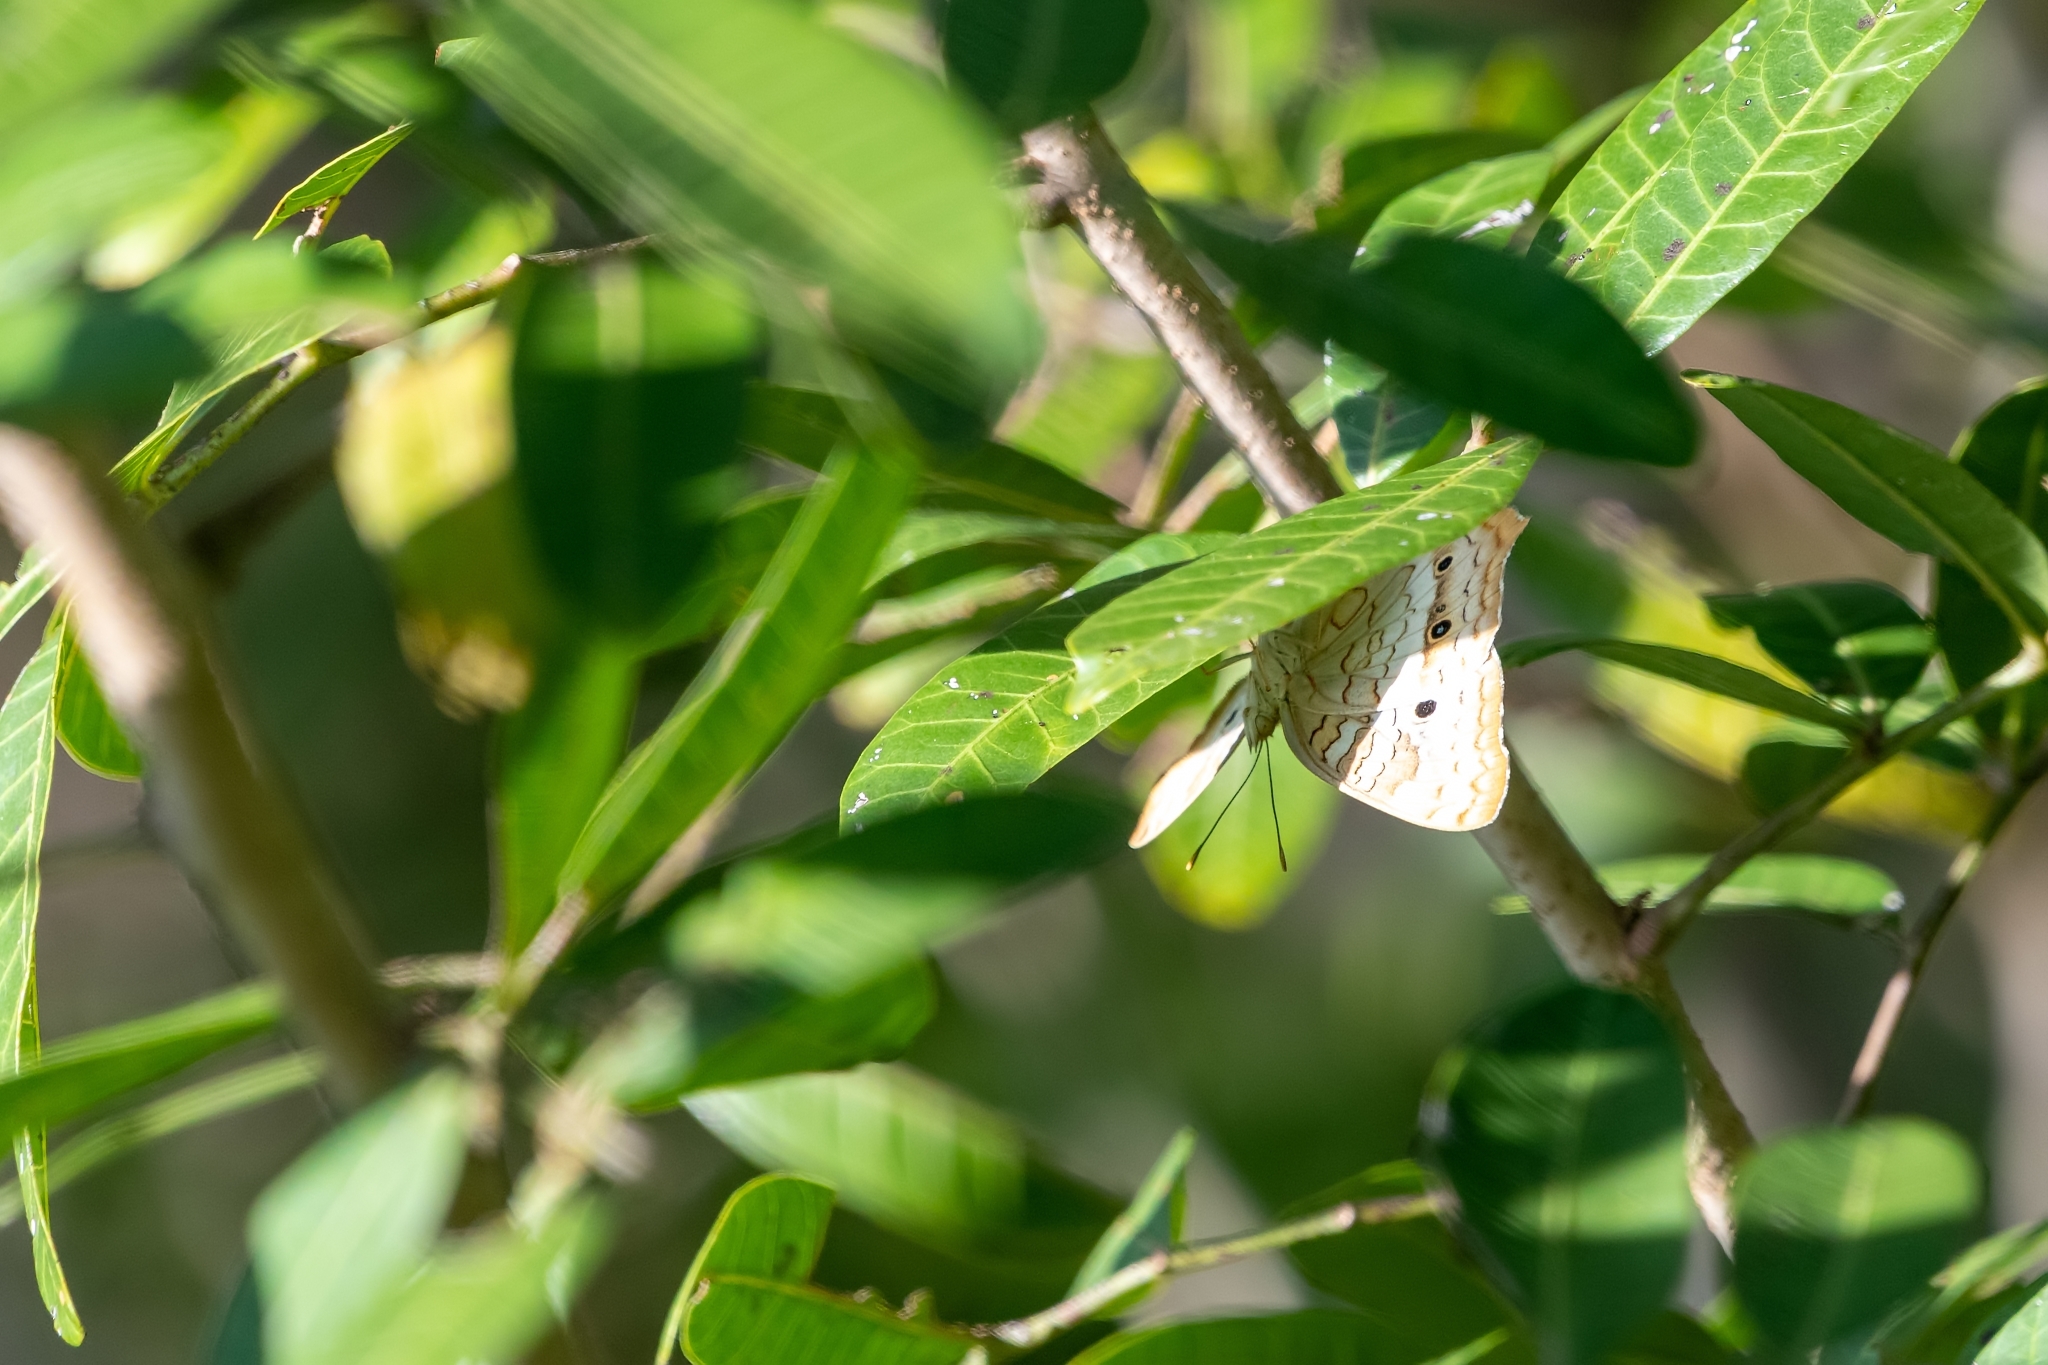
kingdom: Animalia
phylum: Arthropoda
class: Insecta
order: Lepidoptera
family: Nymphalidae
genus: Anartia
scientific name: Anartia jatrophae
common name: White peacock
